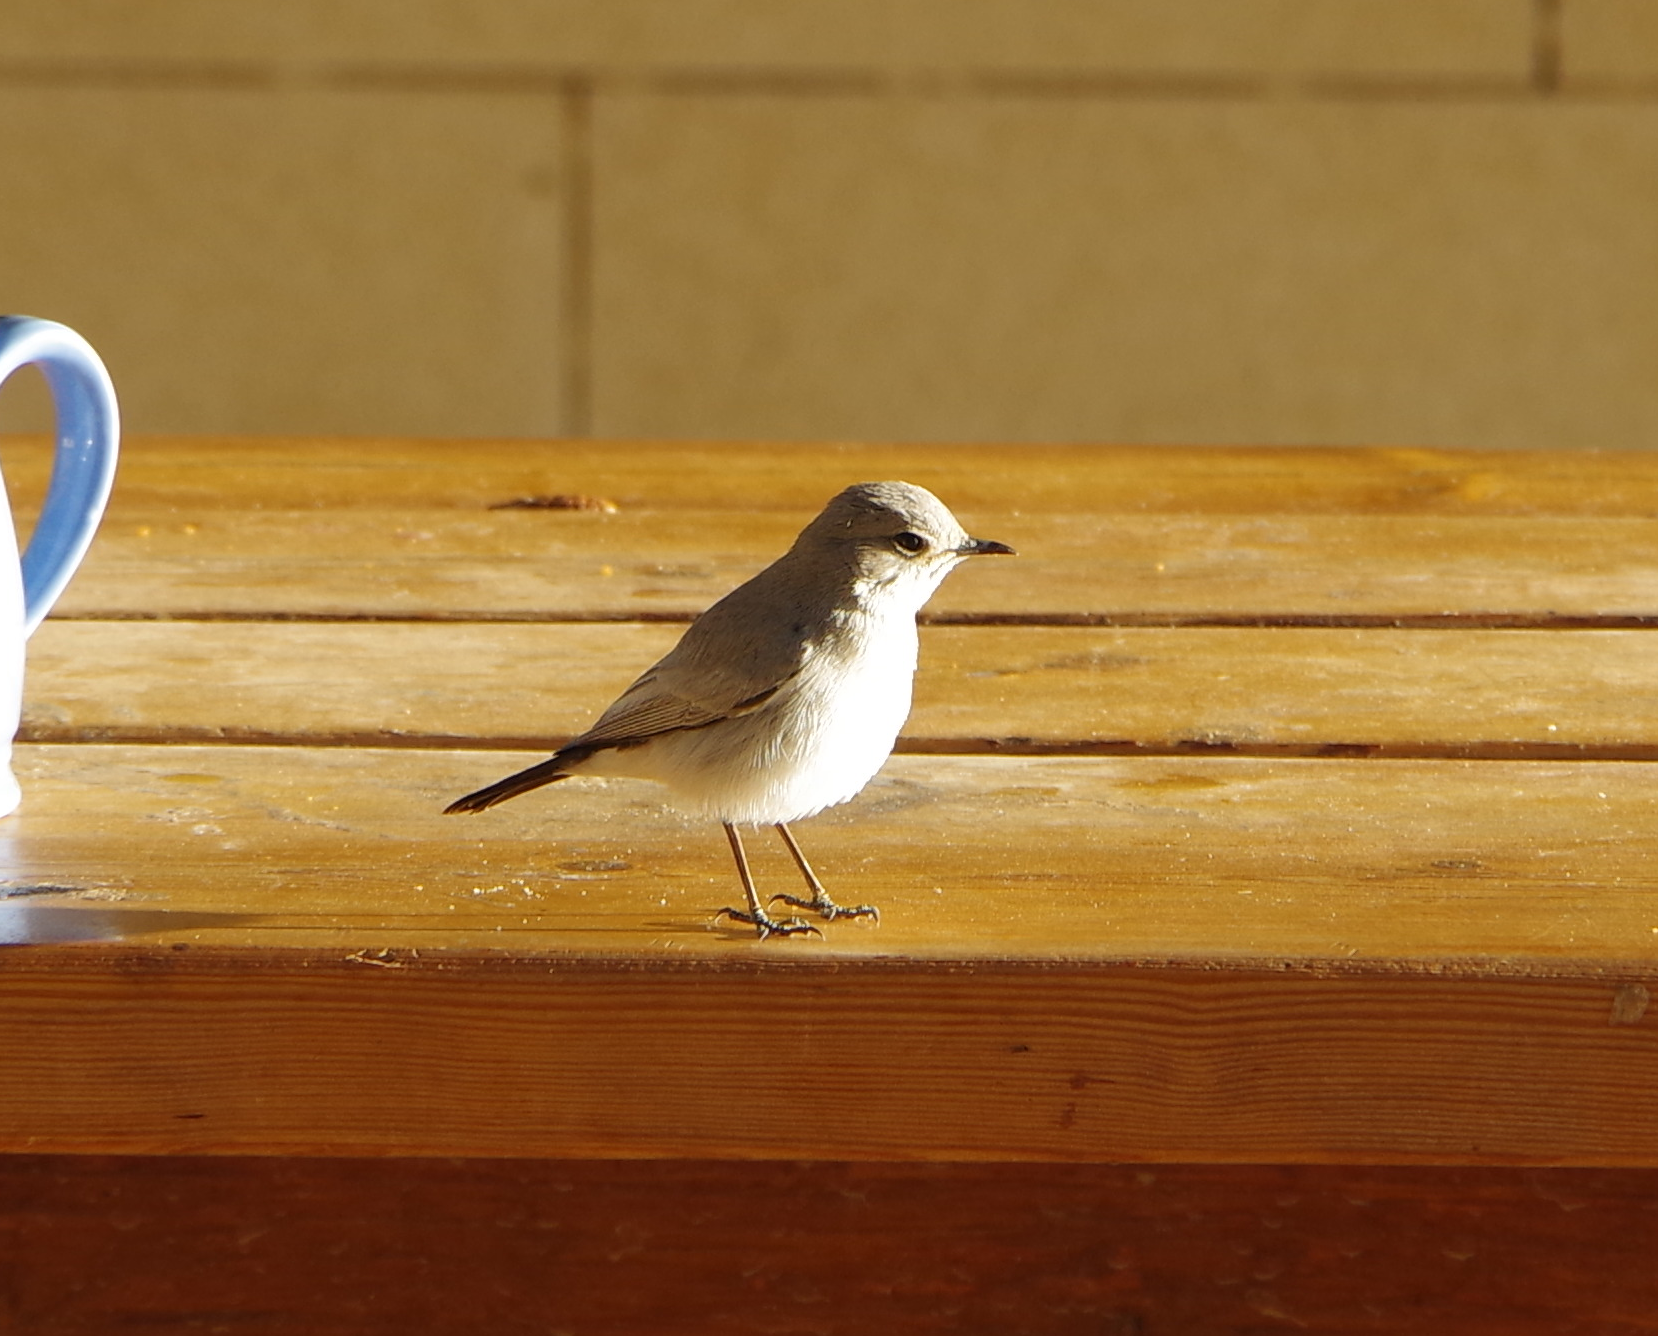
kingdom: Animalia
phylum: Chordata
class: Aves
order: Passeriformes
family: Muscicapidae
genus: Oenanthe
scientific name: Oenanthe melanura
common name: Blackstart
